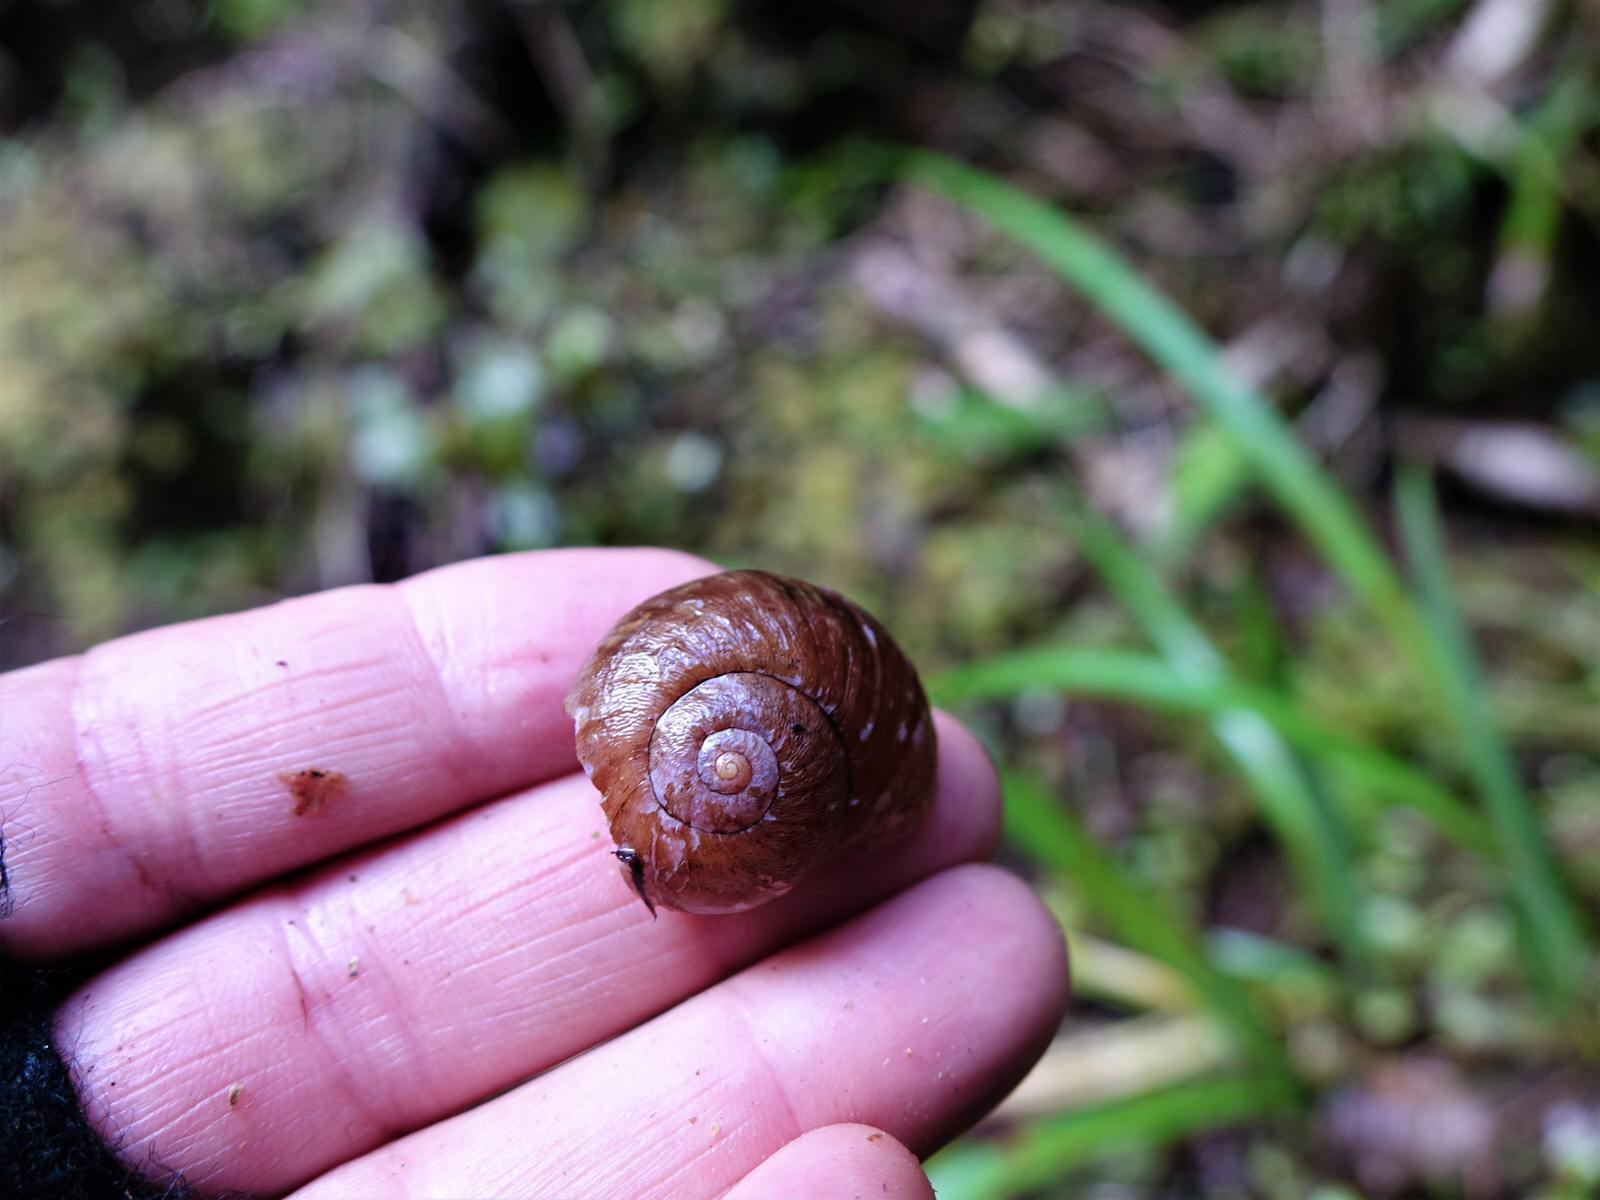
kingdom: Animalia
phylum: Mollusca
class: Gastropoda
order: Stylommatophora
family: Rhytididae
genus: Rhytida
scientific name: Rhytida greenwoodi
